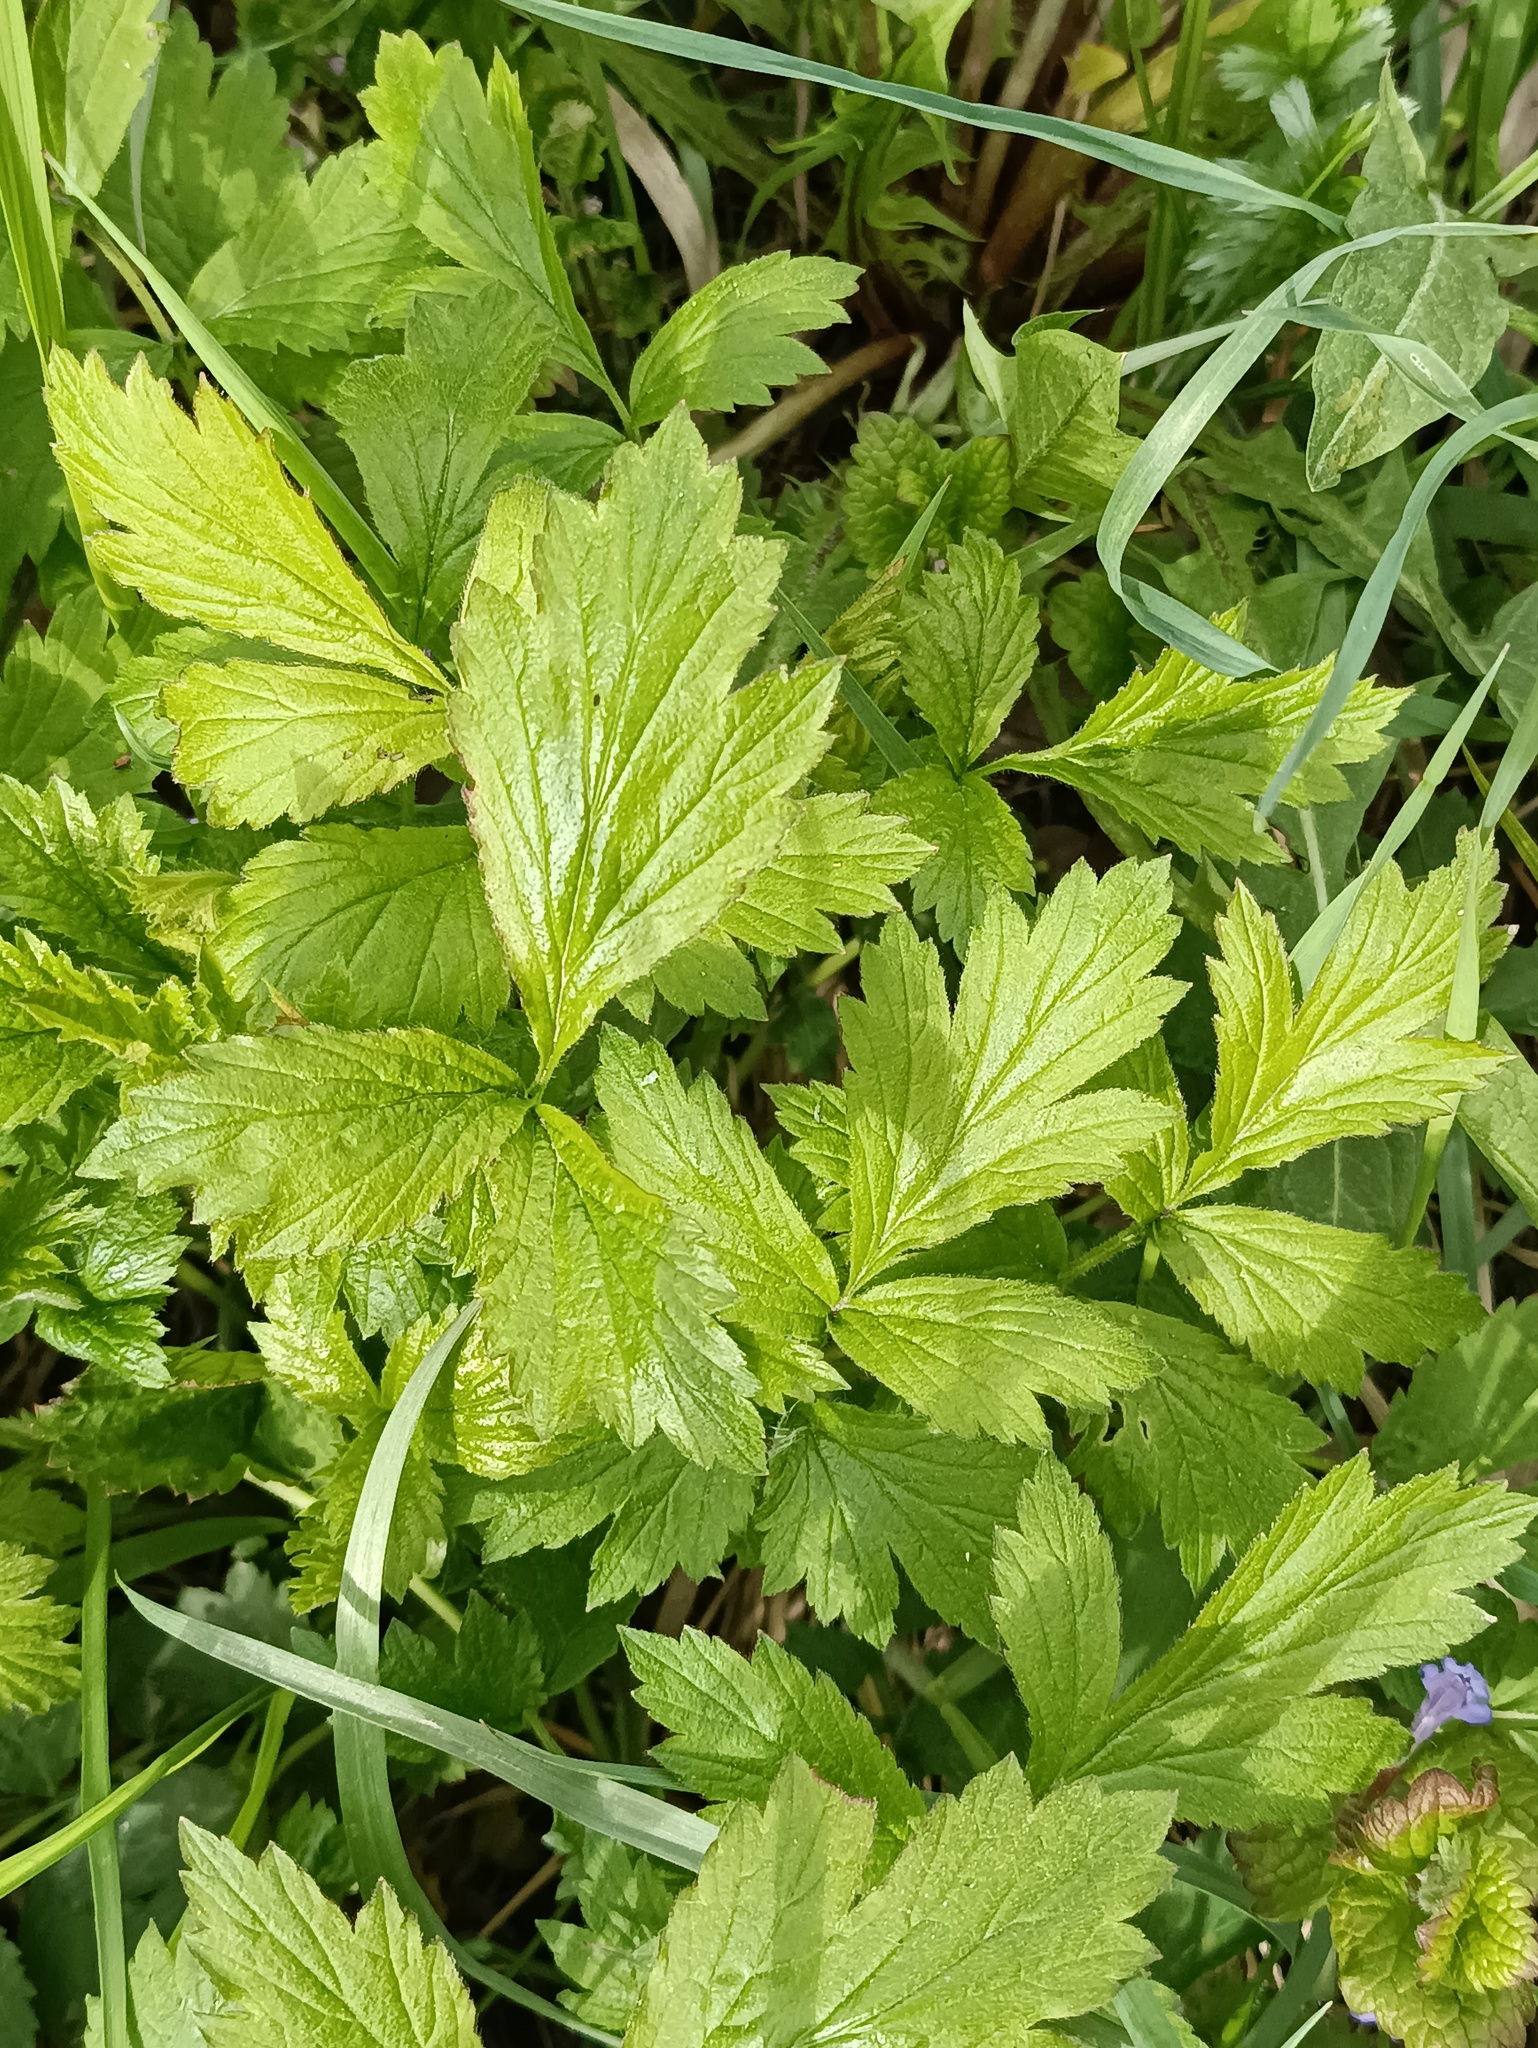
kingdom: Plantae
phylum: Tracheophyta
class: Magnoliopsida
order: Rosales
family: Rosaceae
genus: Geum
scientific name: Geum aleppicum
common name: Yellow avens
